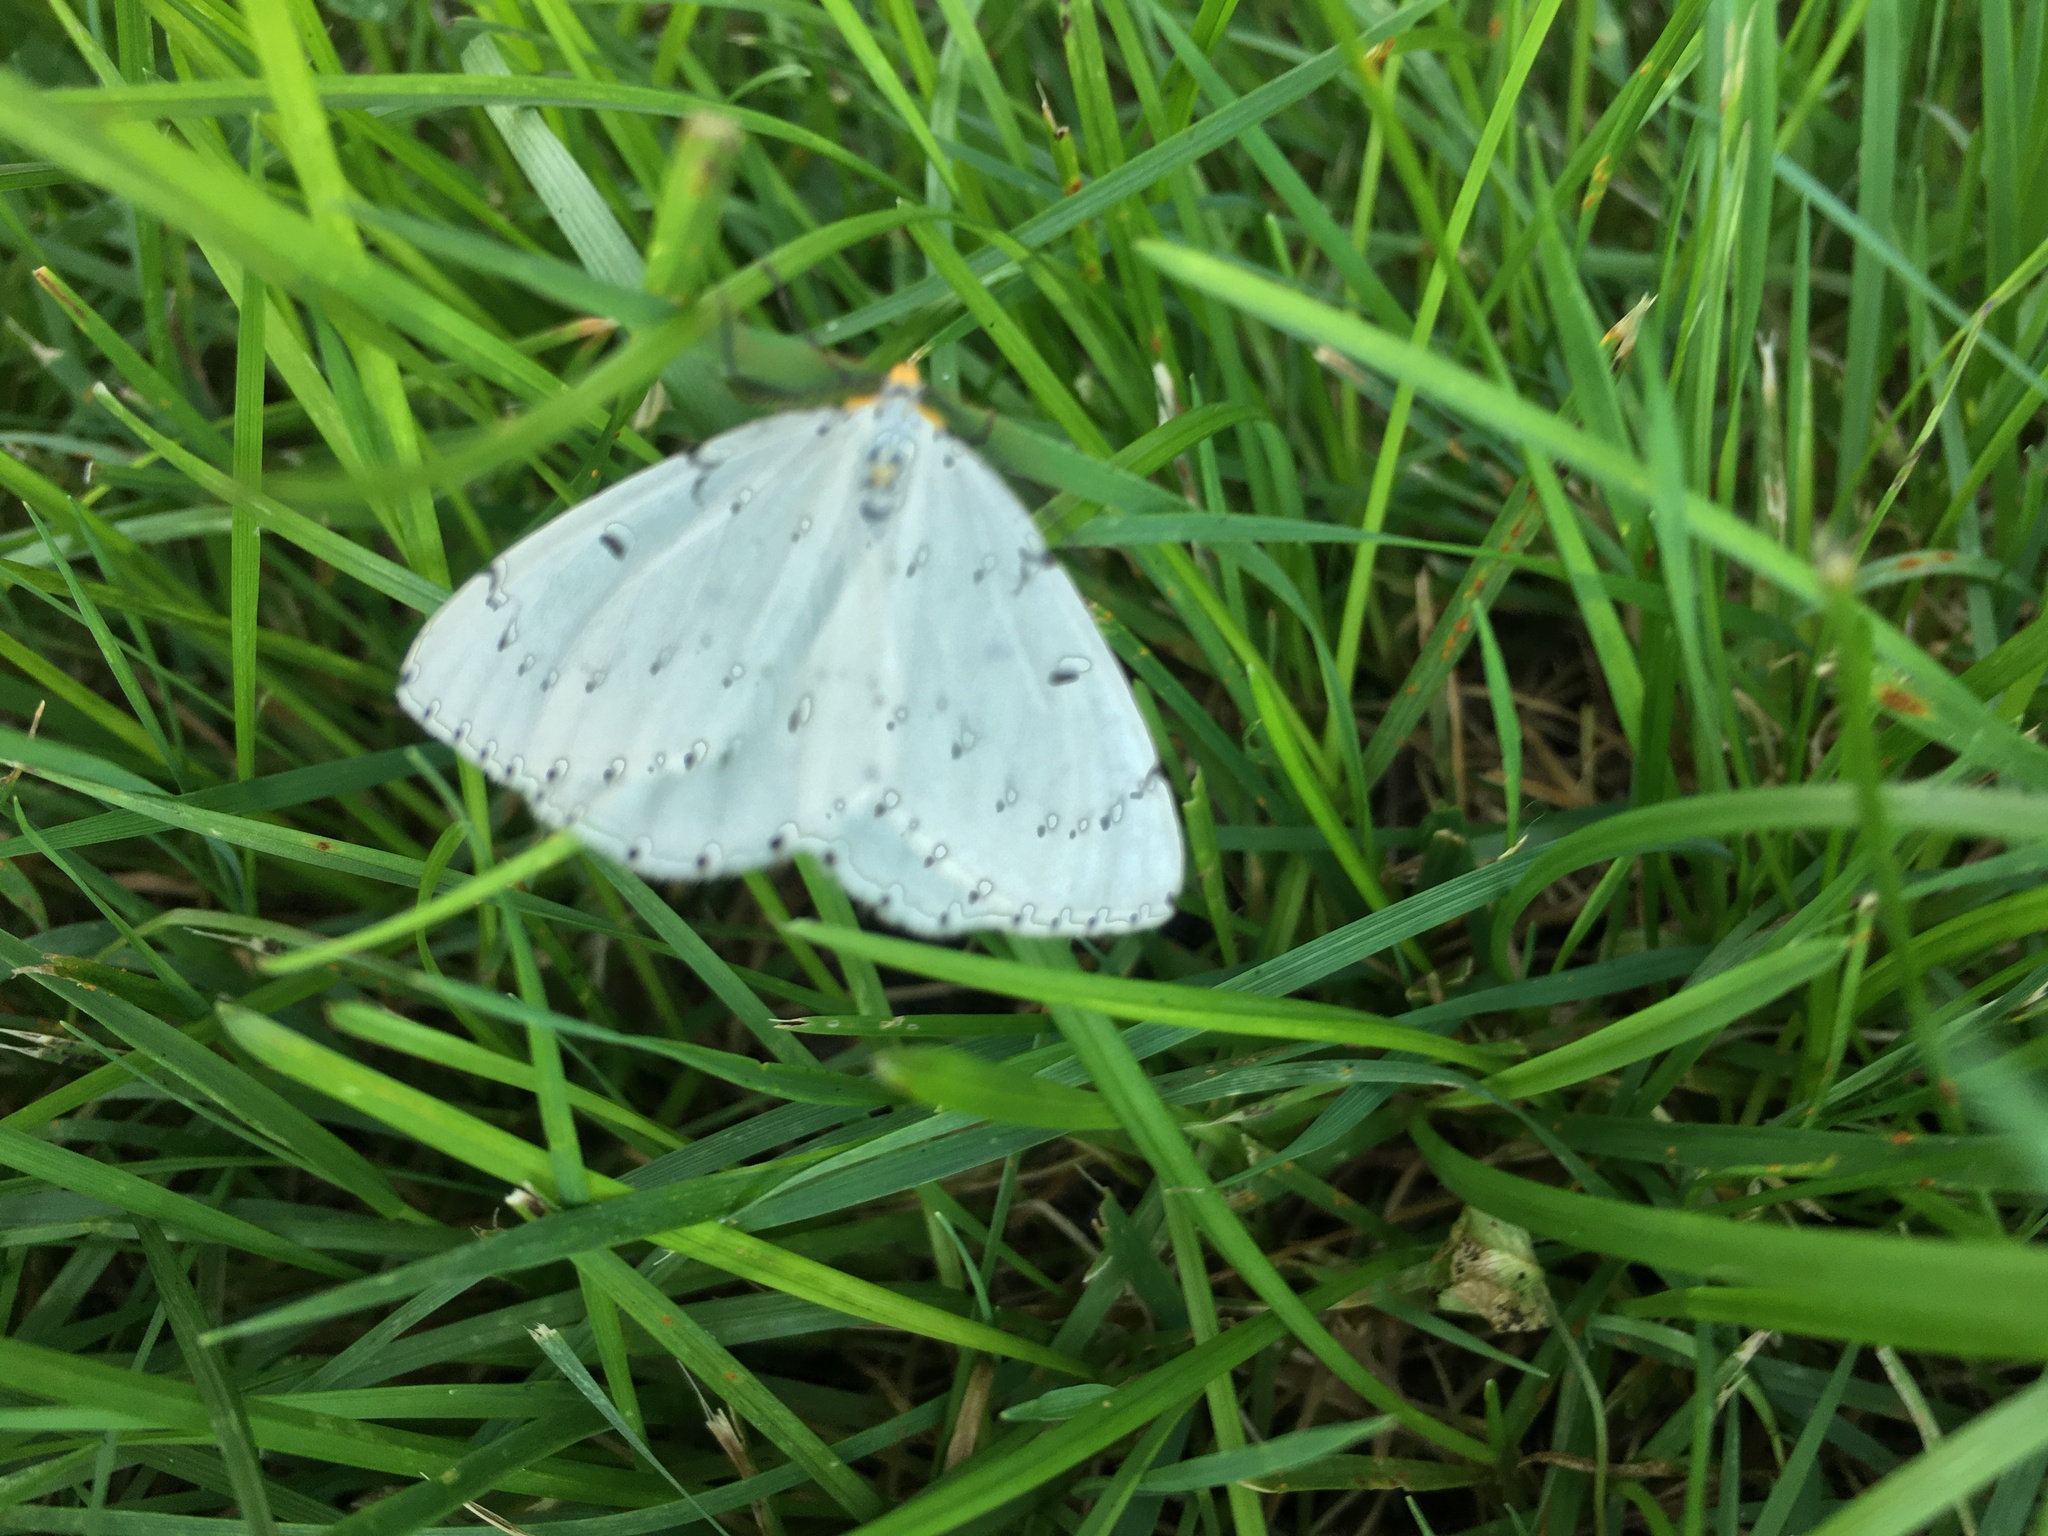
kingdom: Animalia
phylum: Arthropoda
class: Insecta
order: Lepidoptera
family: Geometridae
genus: Cingilia
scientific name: Cingilia catenaria
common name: Chain-dotted geometer
